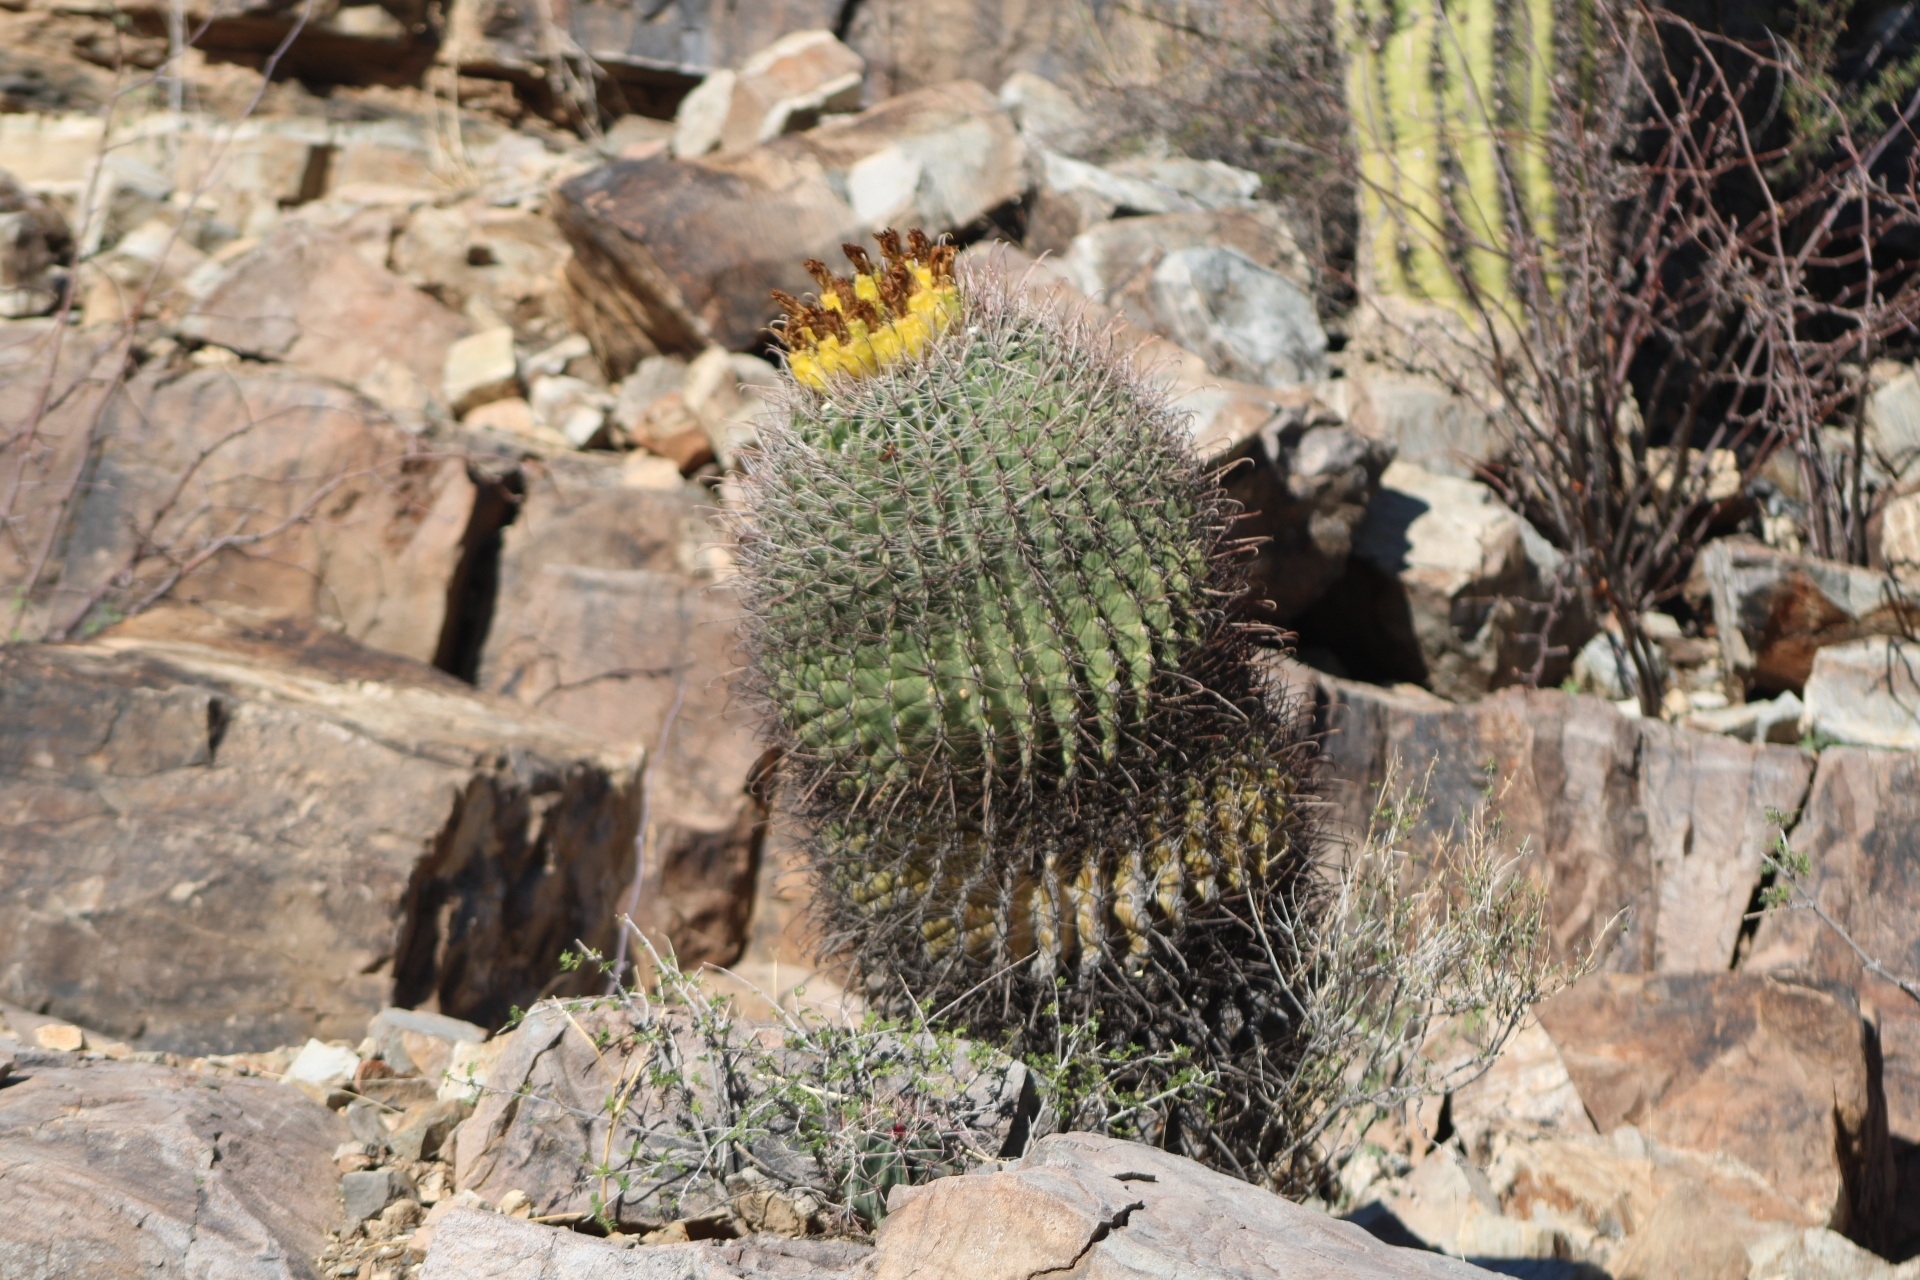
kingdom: Plantae
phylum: Tracheophyta
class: Magnoliopsida
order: Caryophyllales
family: Cactaceae
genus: Ferocactus
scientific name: Ferocactus wislizeni
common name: Candy barrel cactus
